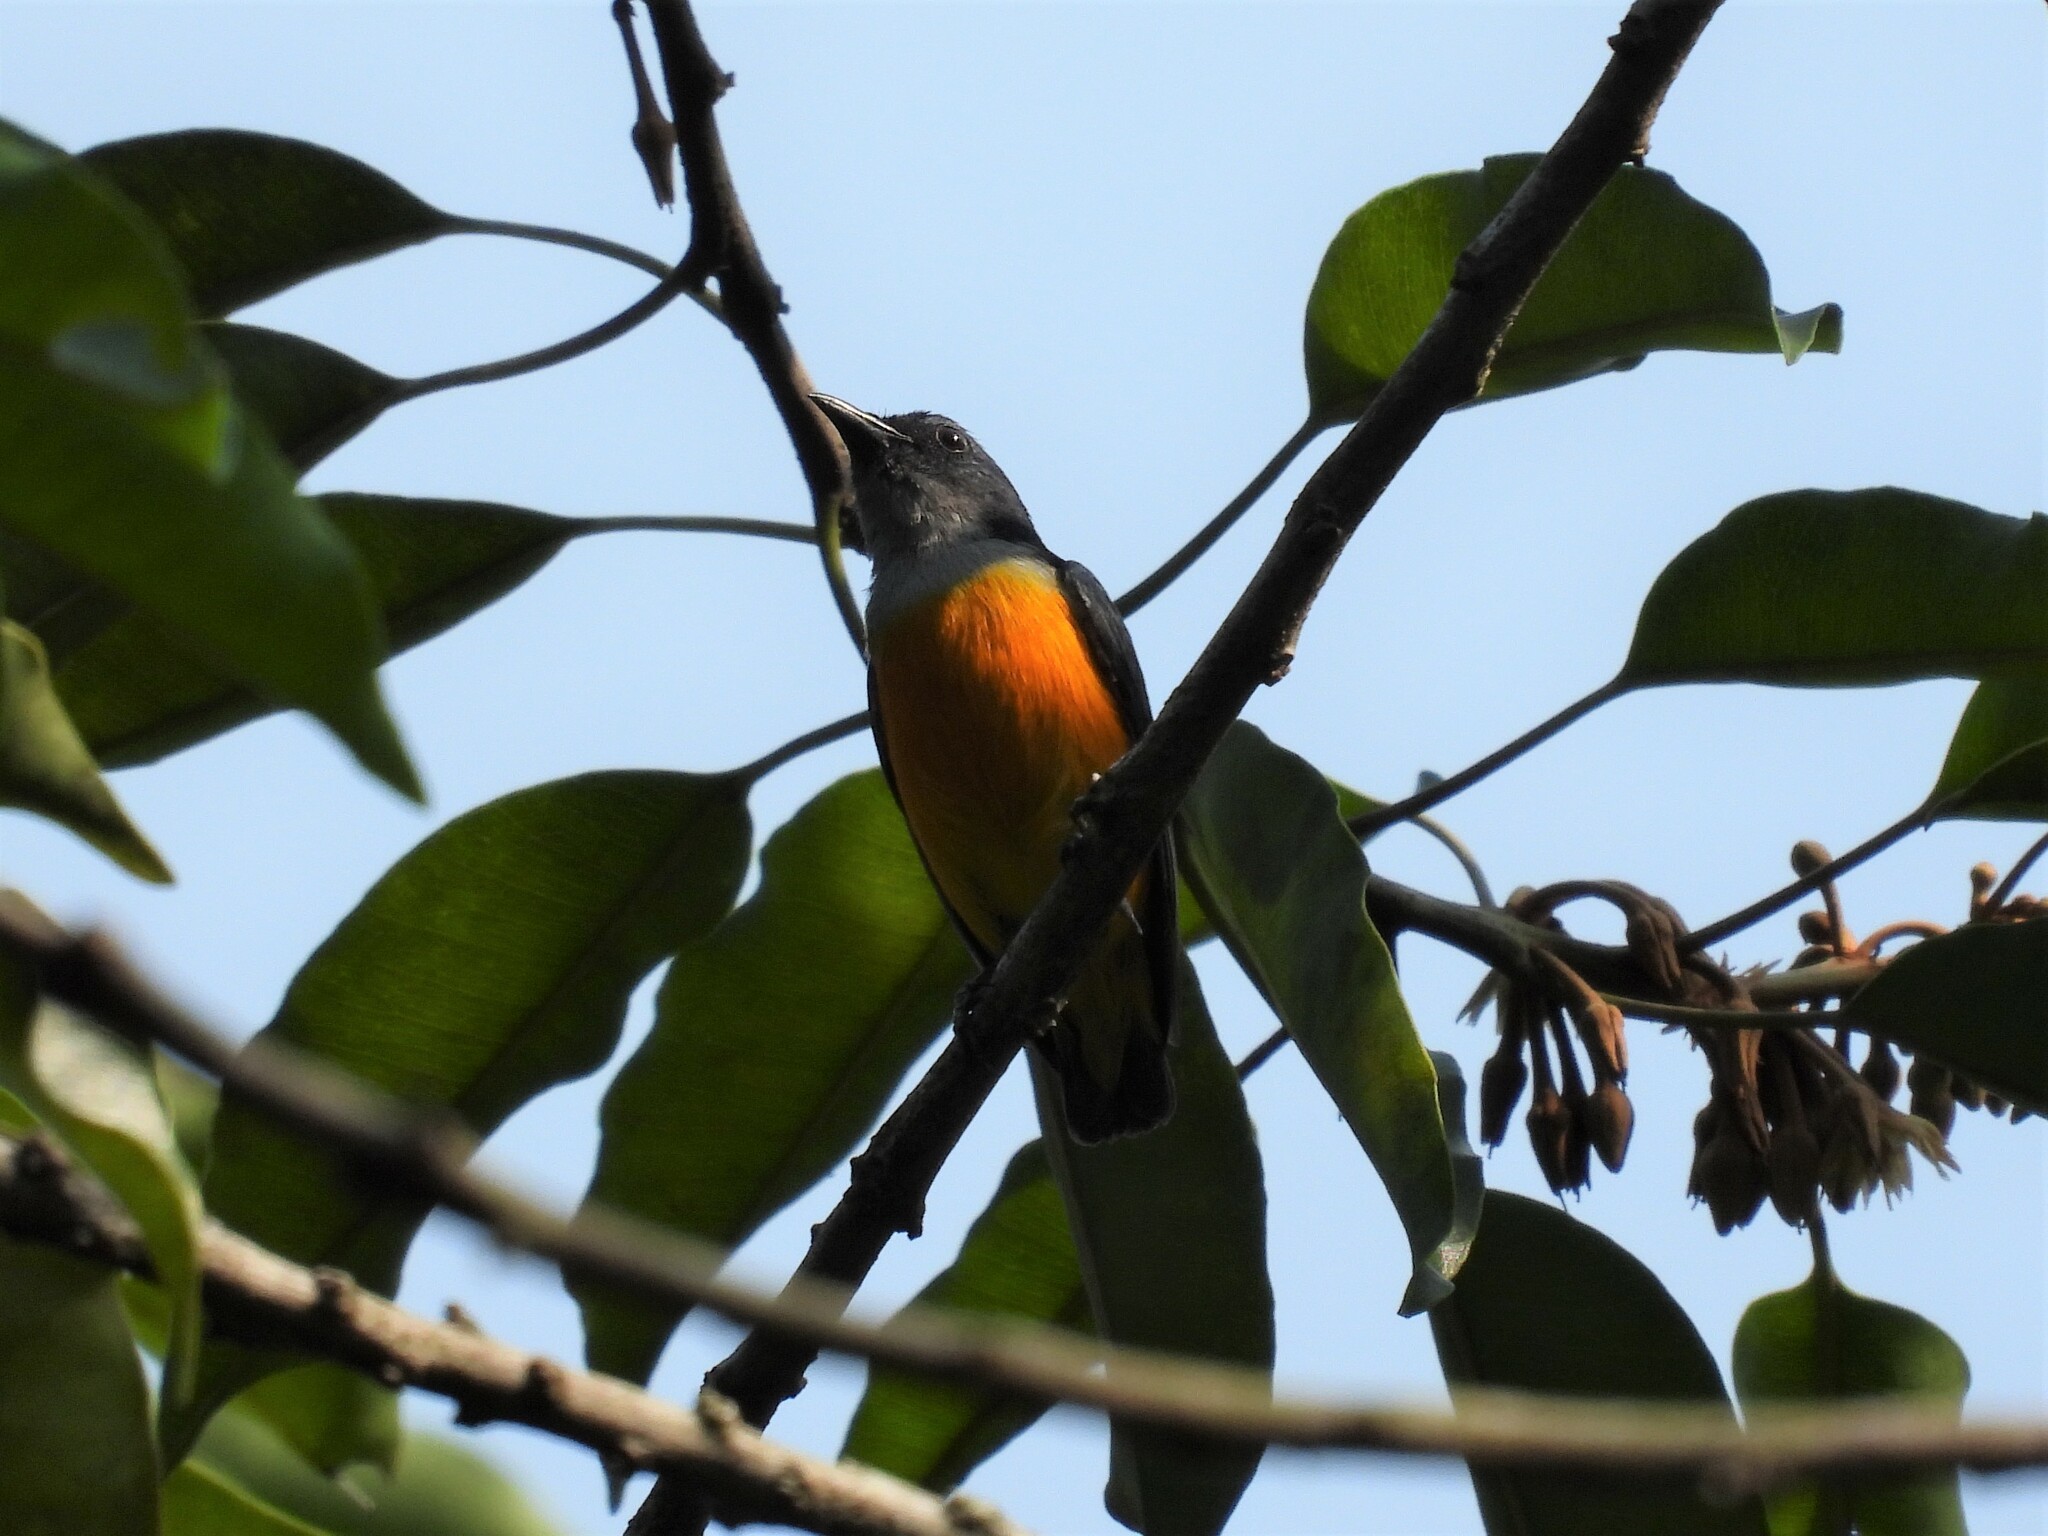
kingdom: Animalia
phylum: Chordata
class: Aves
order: Passeriformes
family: Dicaeidae
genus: Dicaeum
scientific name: Dicaeum trigonostigma
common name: Orange-bellied flowerpecker
